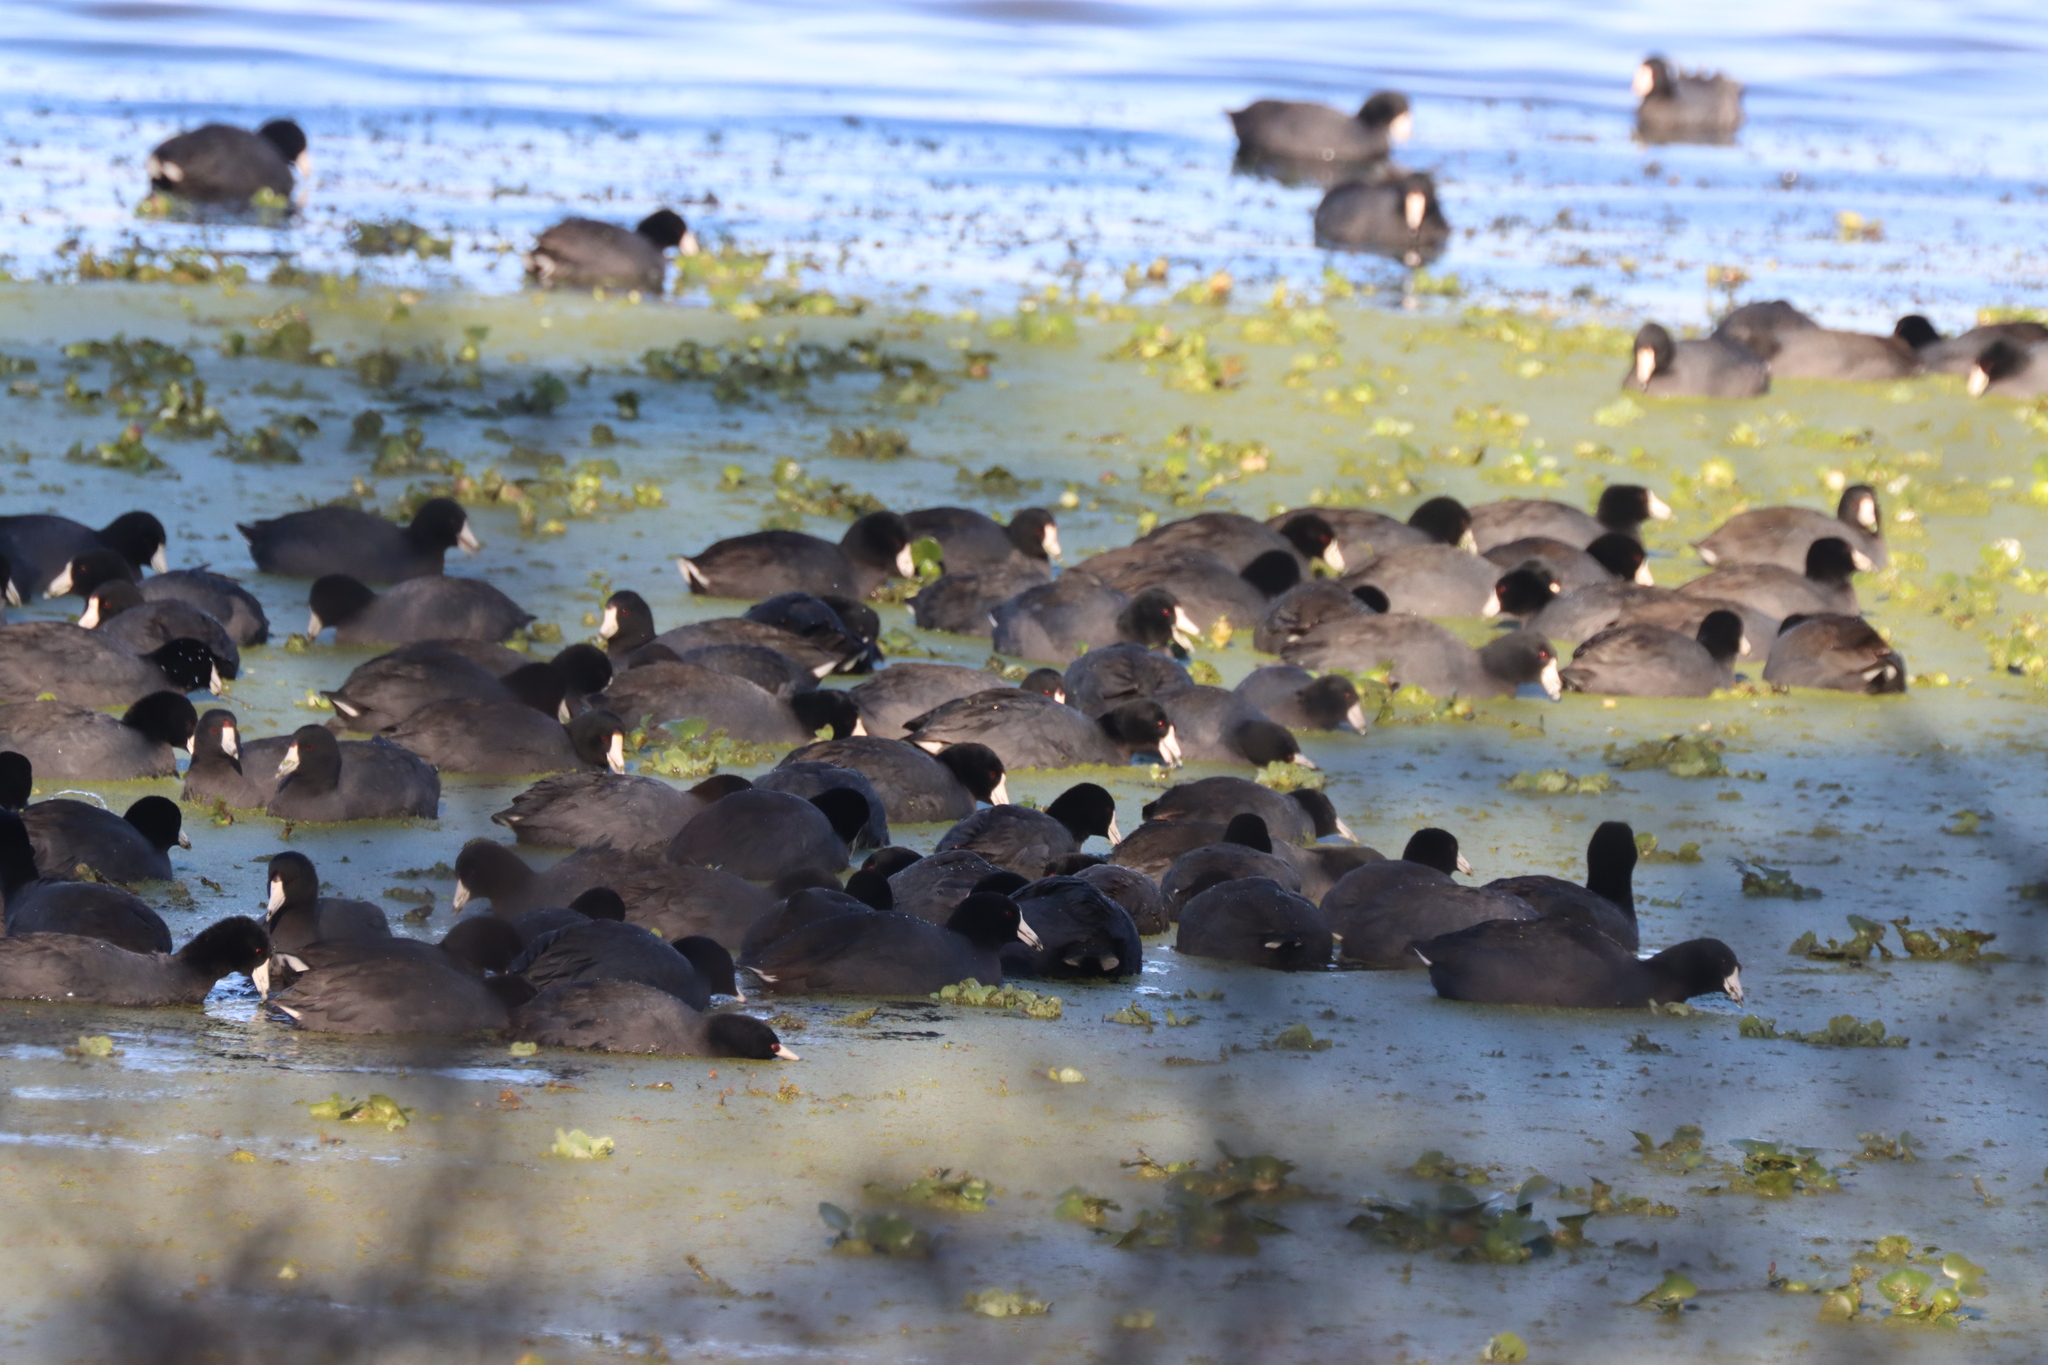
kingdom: Animalia
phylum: Chordata
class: Aves
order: Gruiformes
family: Rallidae
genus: Fulica
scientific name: Fulica americana
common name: American coot
